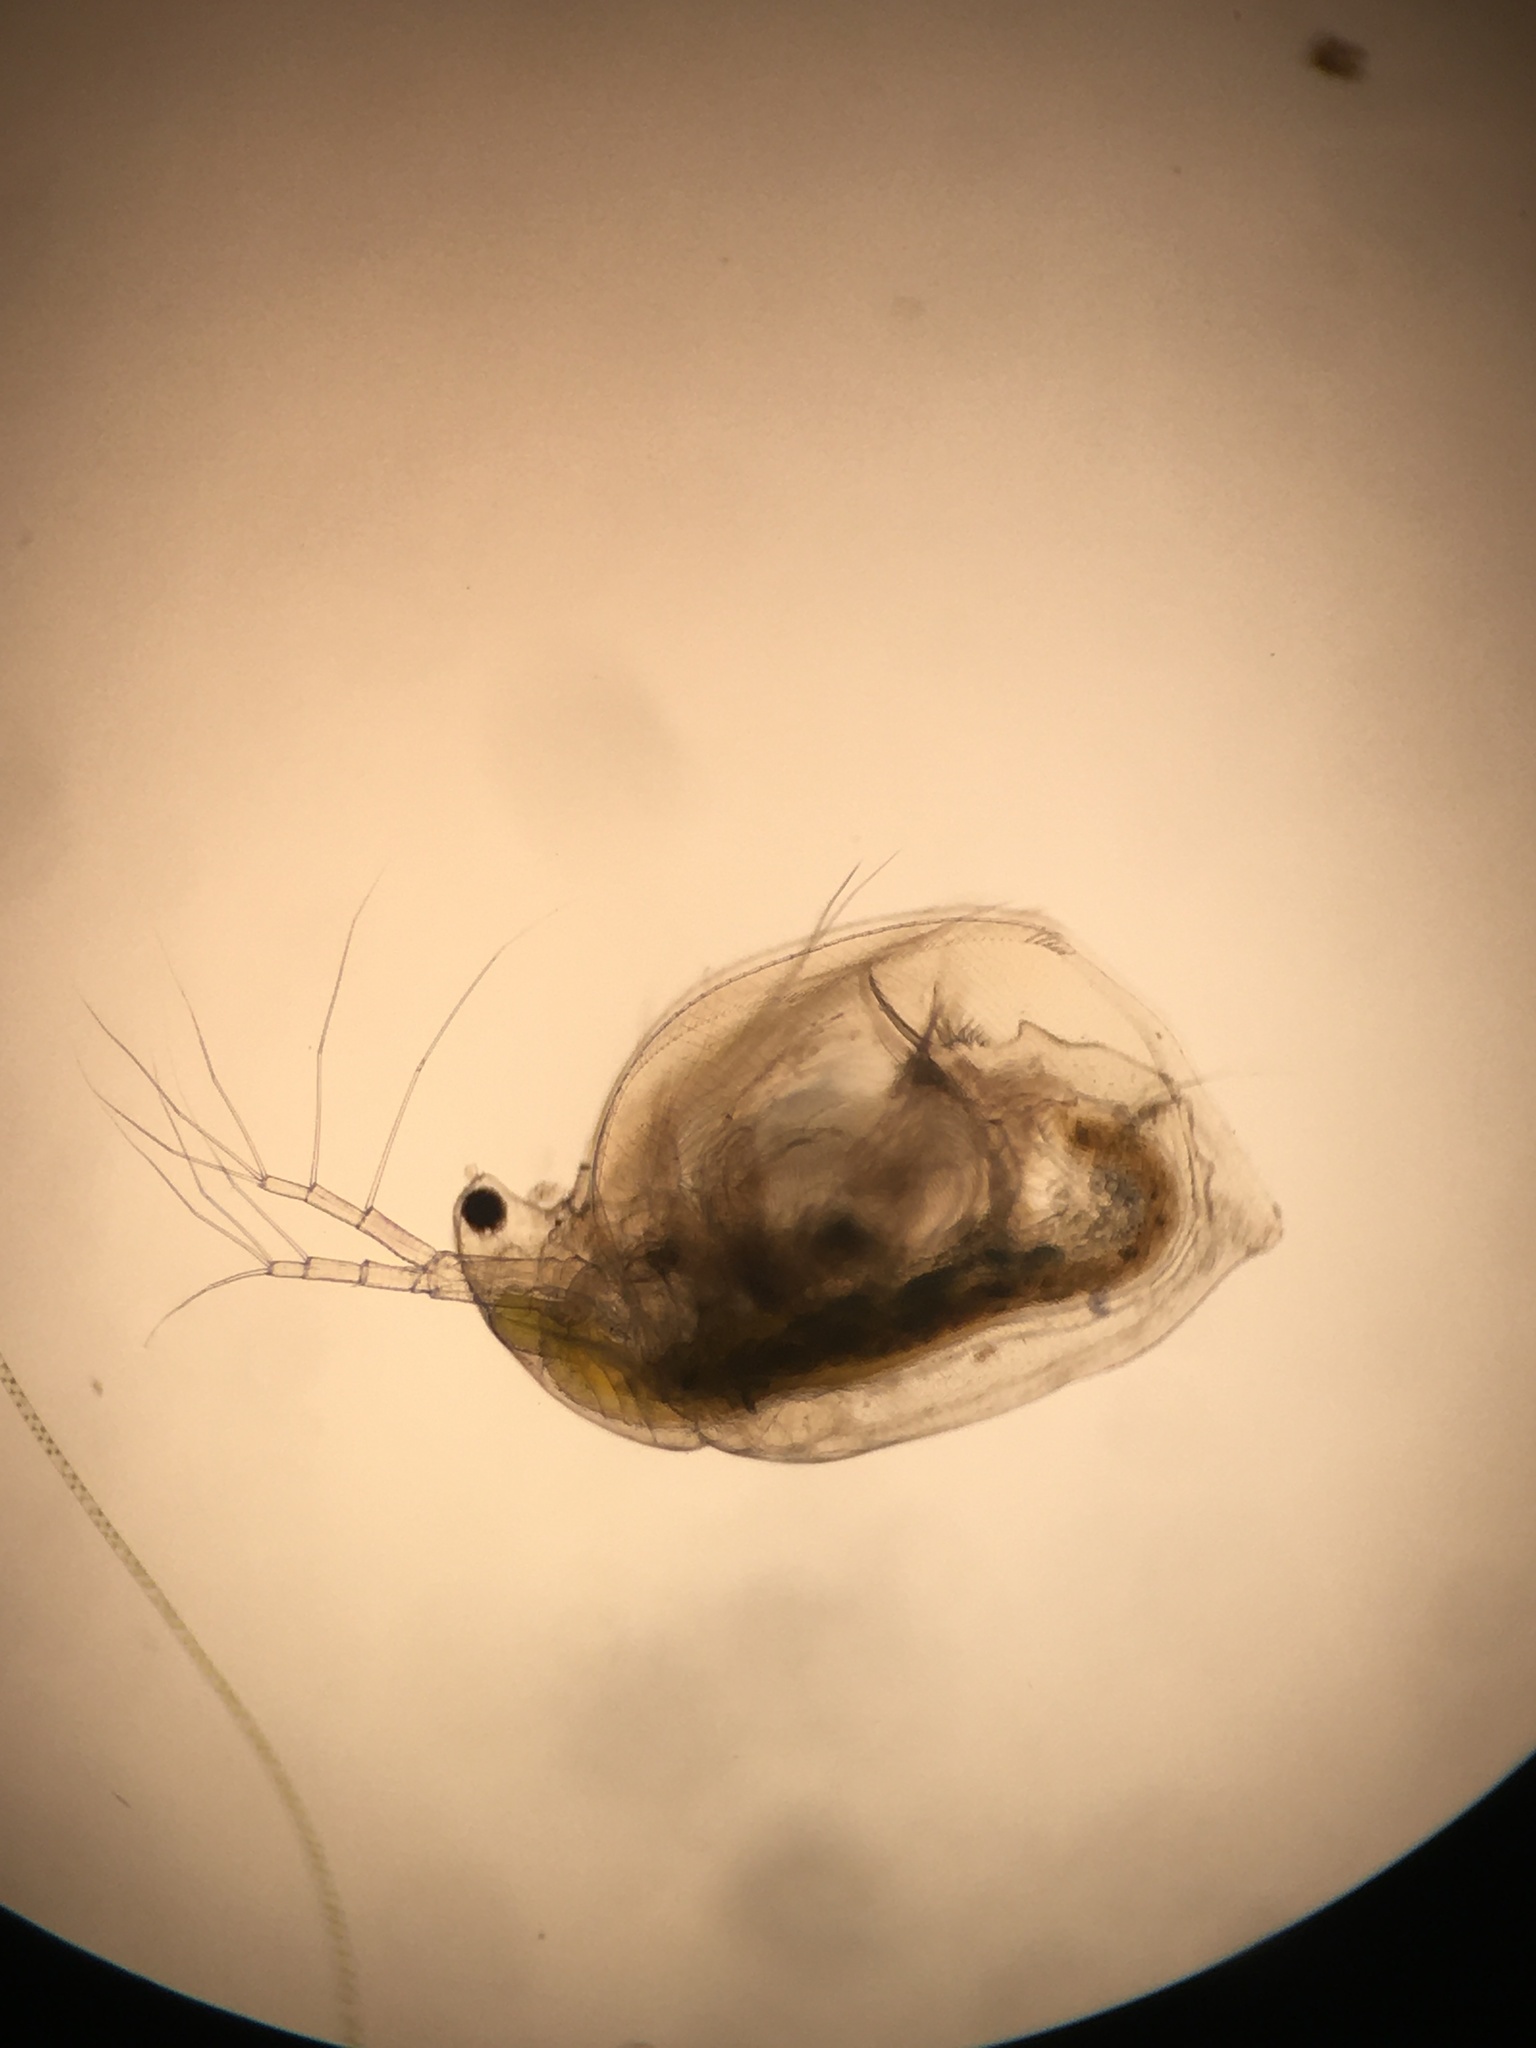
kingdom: Animalia
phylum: Arthropoda
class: Branchiopoda
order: Diplostraca
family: Daphniidae
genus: Simocephalus
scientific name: Simocephalus serrulatus
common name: Water flea
